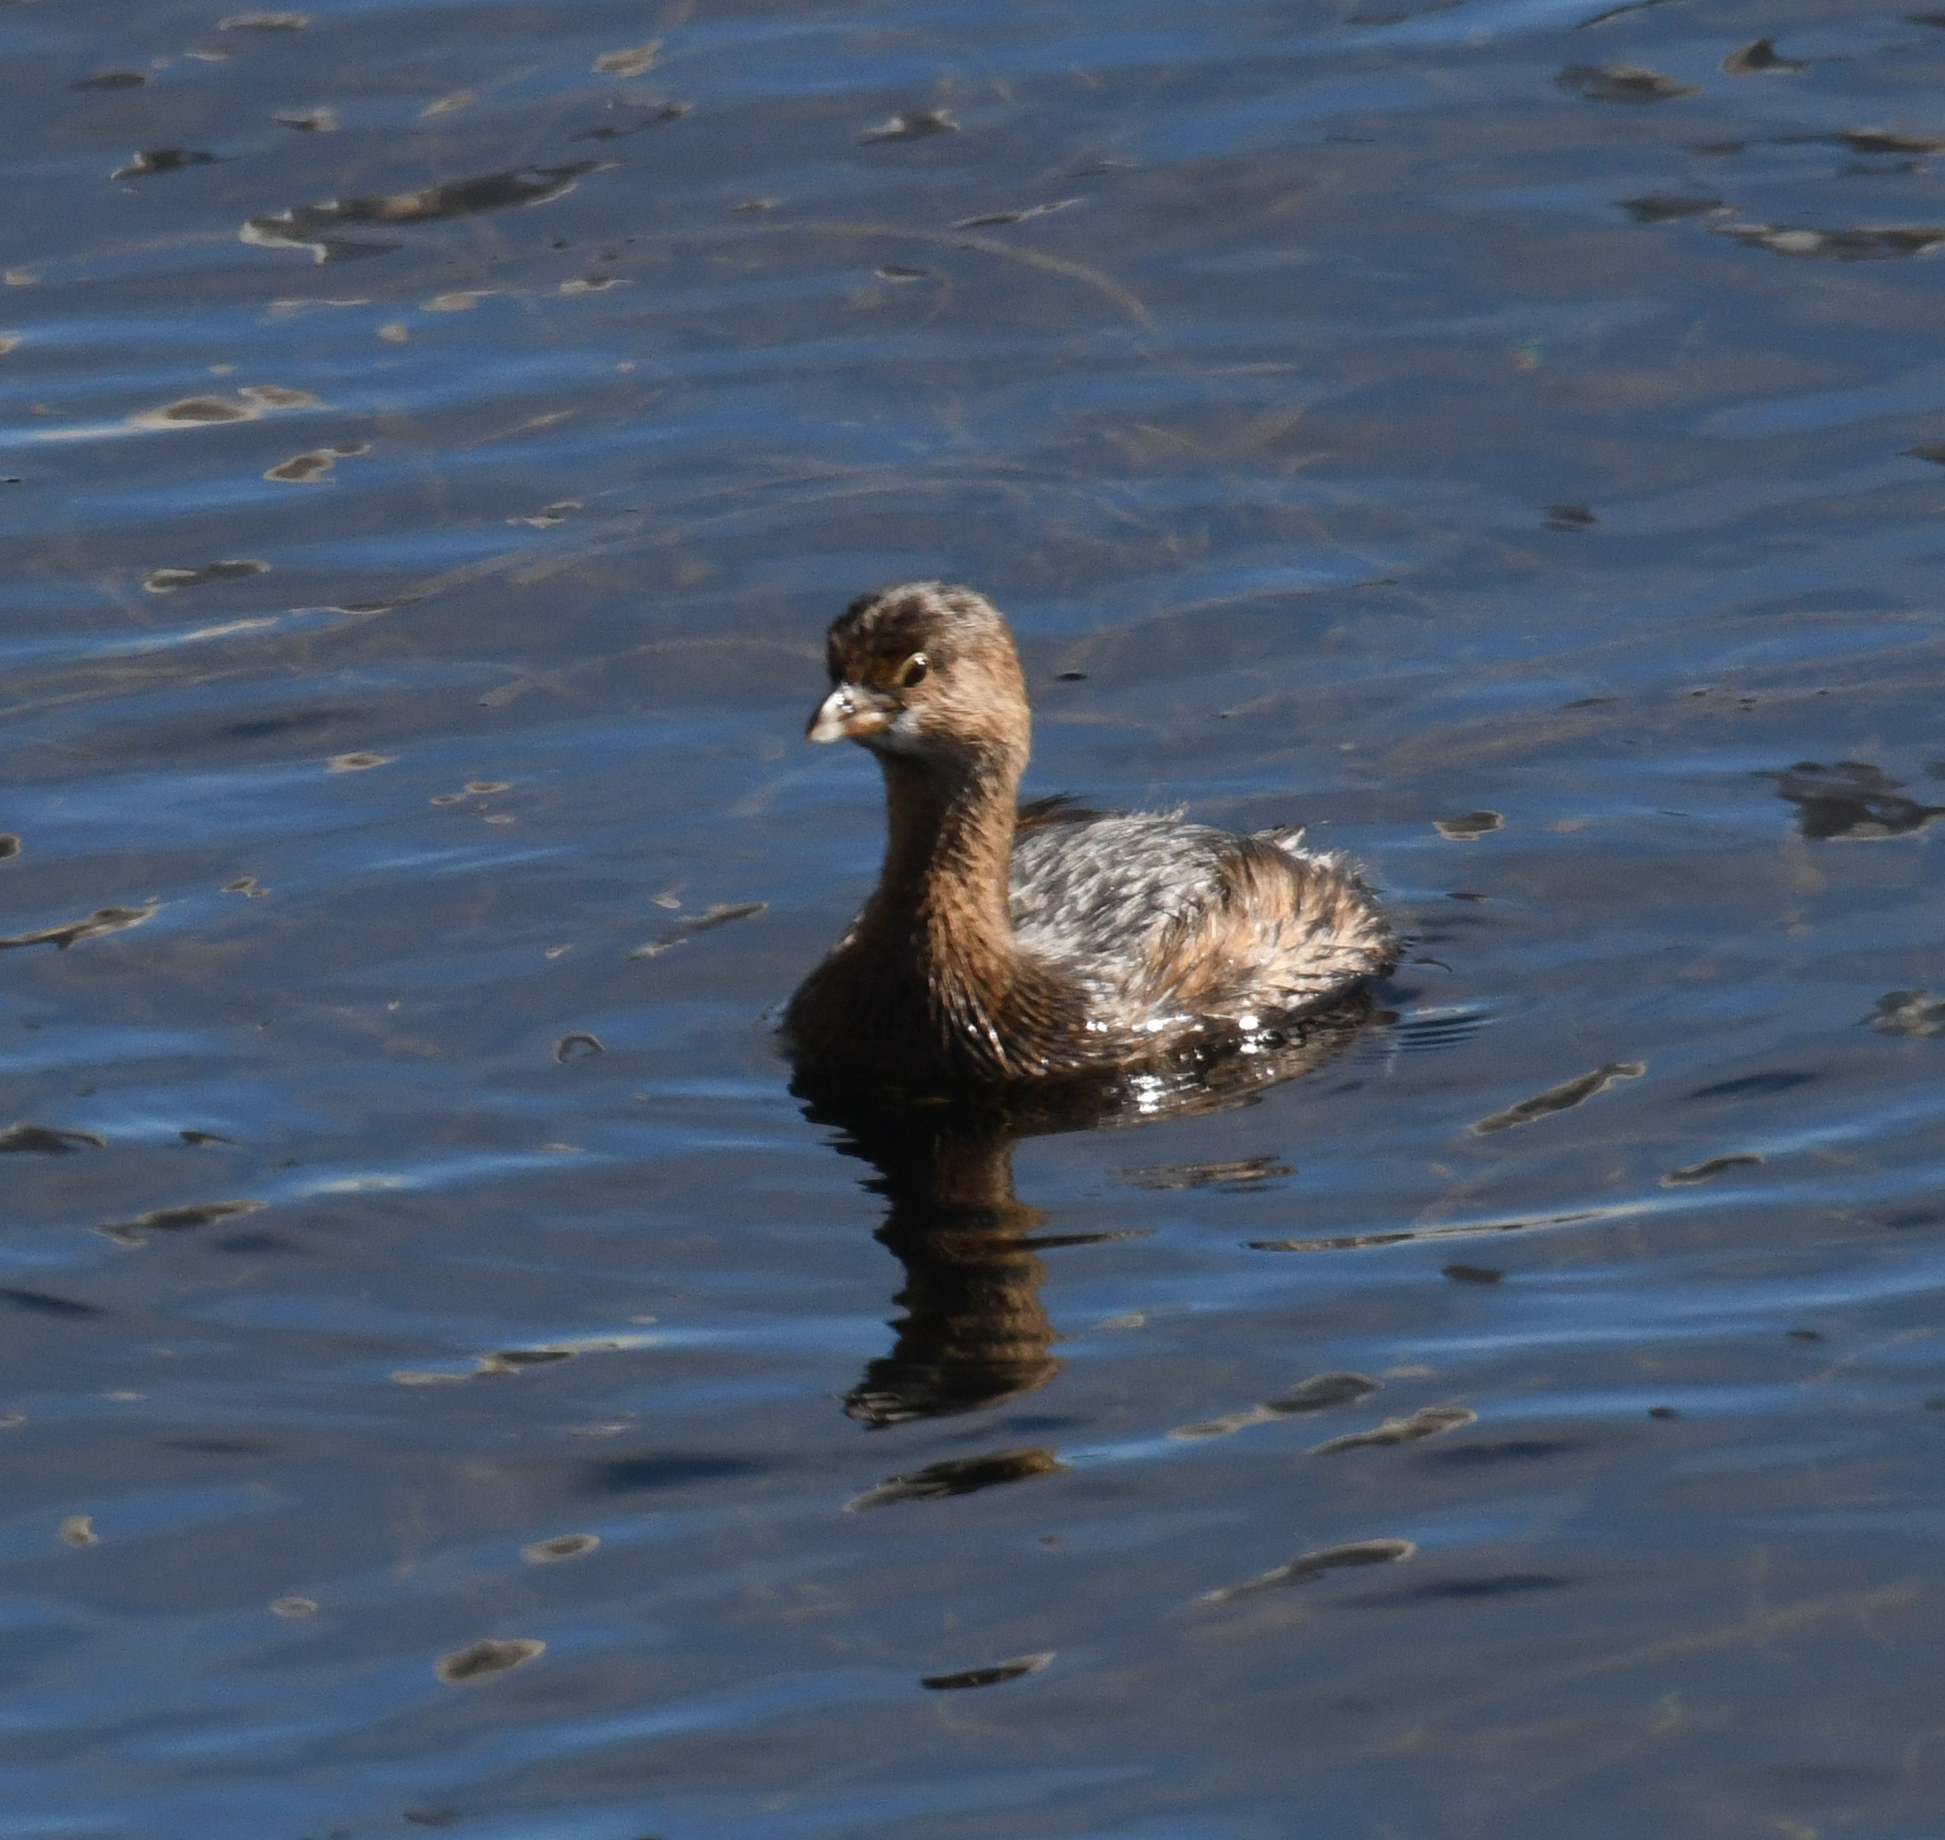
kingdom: Animalia
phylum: Chordata
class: Aves
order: Podicipediformes
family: Podicipedidae
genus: Podilymbus
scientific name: Podilymbus podiceps
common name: Pied-billed grebe
